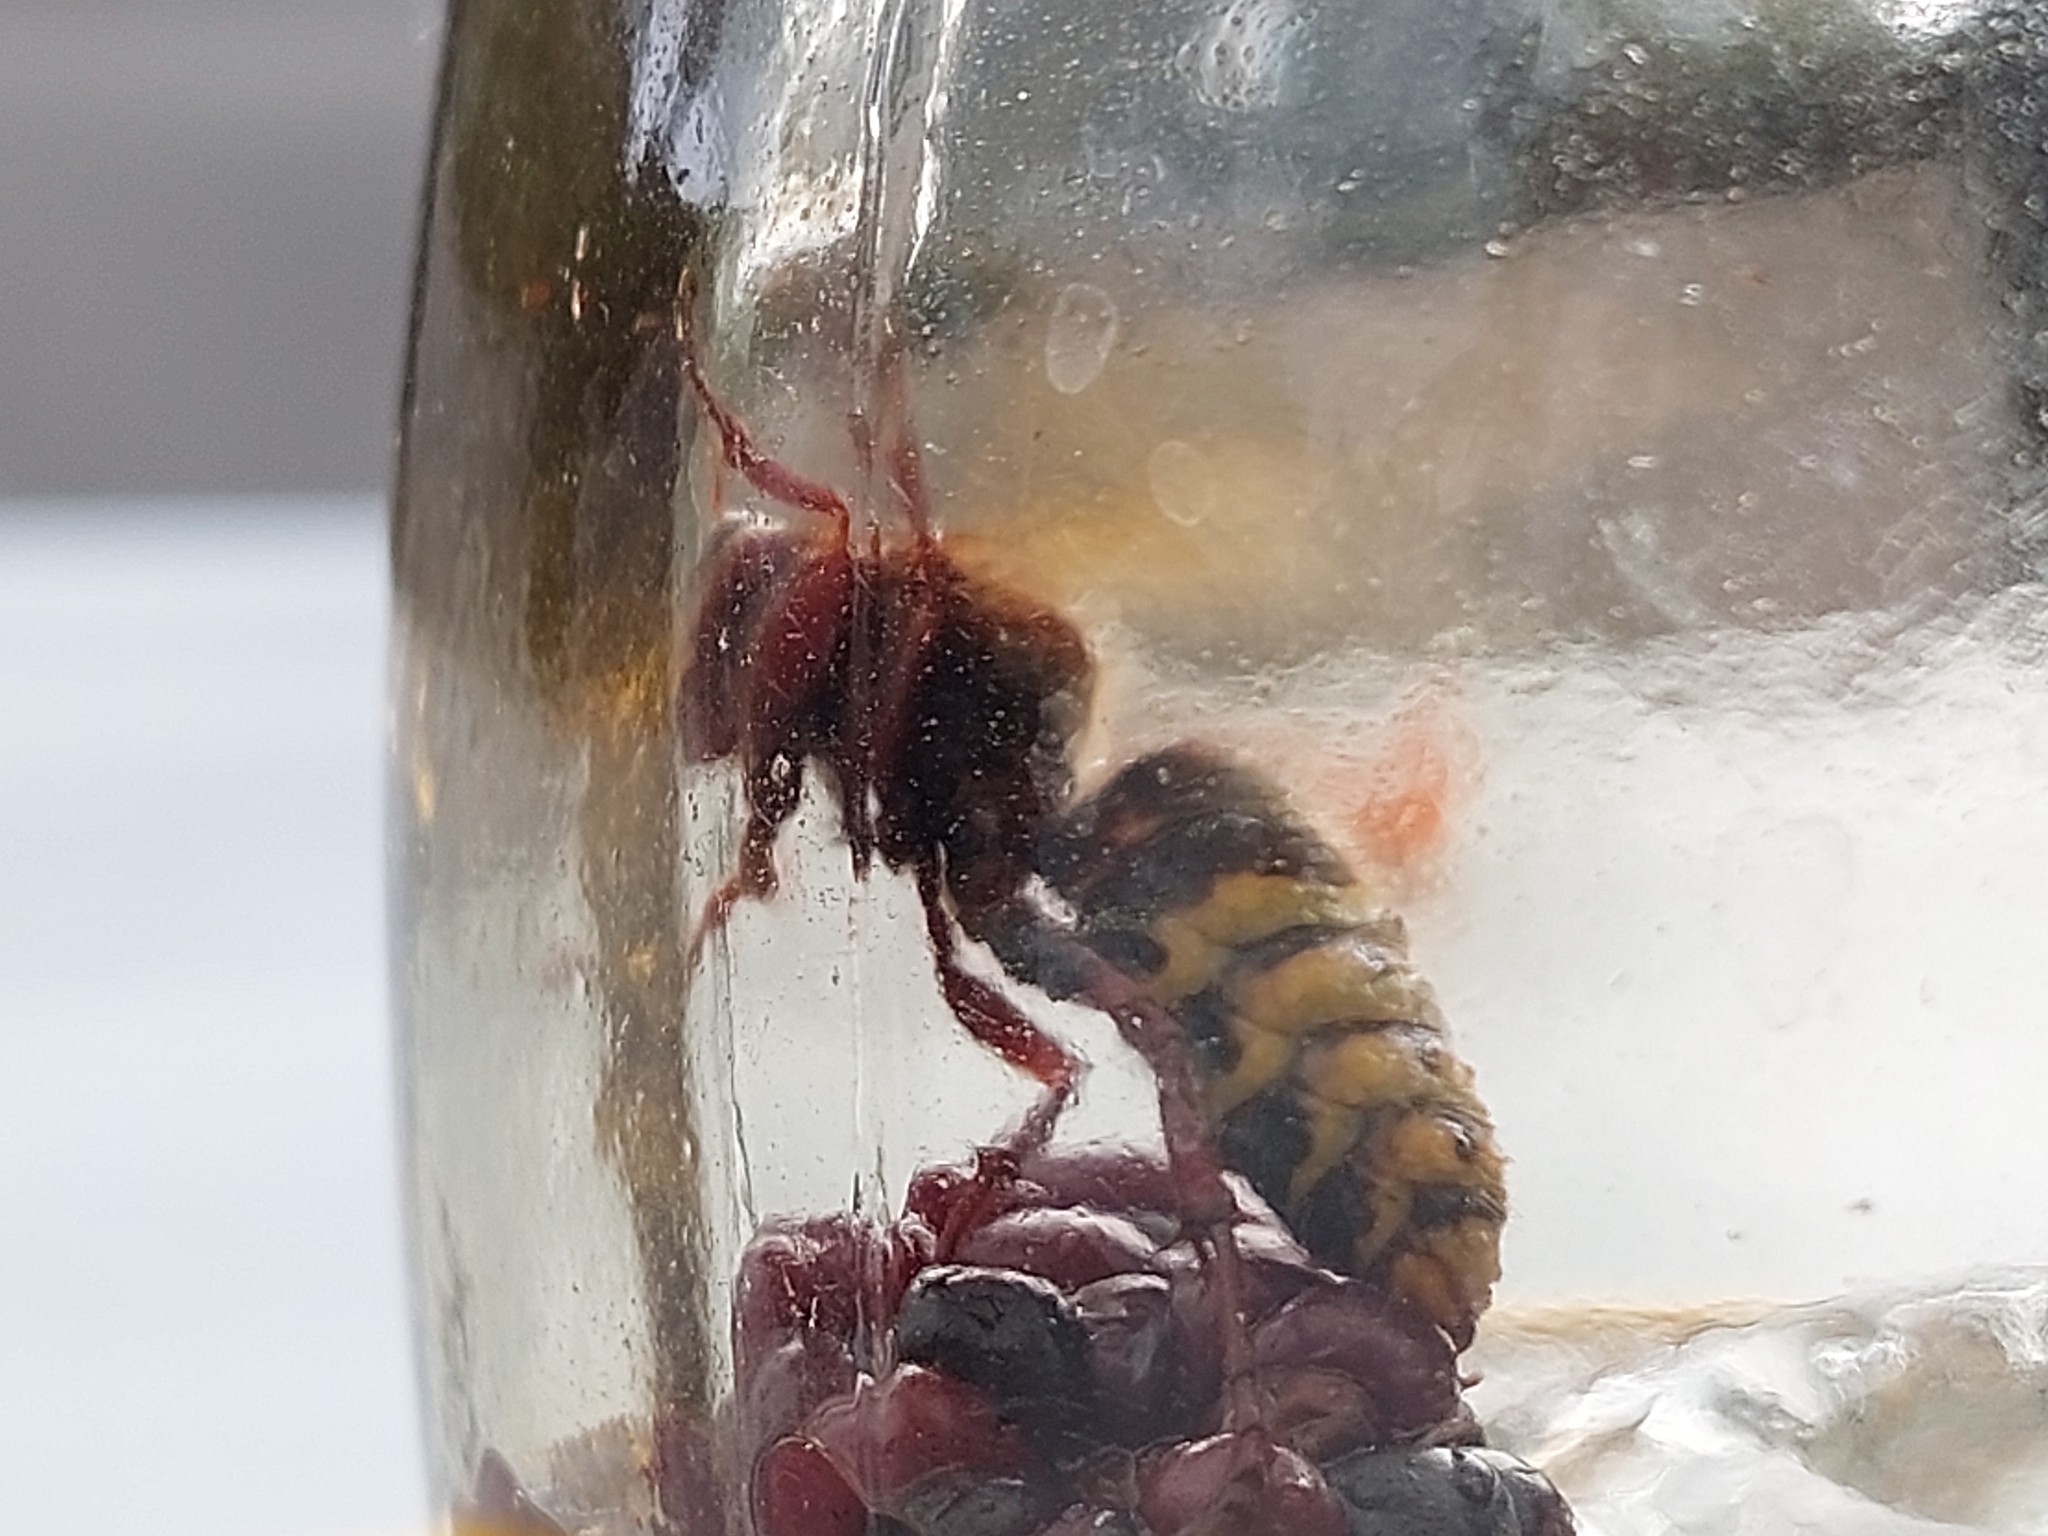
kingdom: Animalia
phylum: Arthropoda
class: Insecta
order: Hymenoptera
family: Vespidae
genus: Vespa
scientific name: Vespa crabro
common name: Hornet
